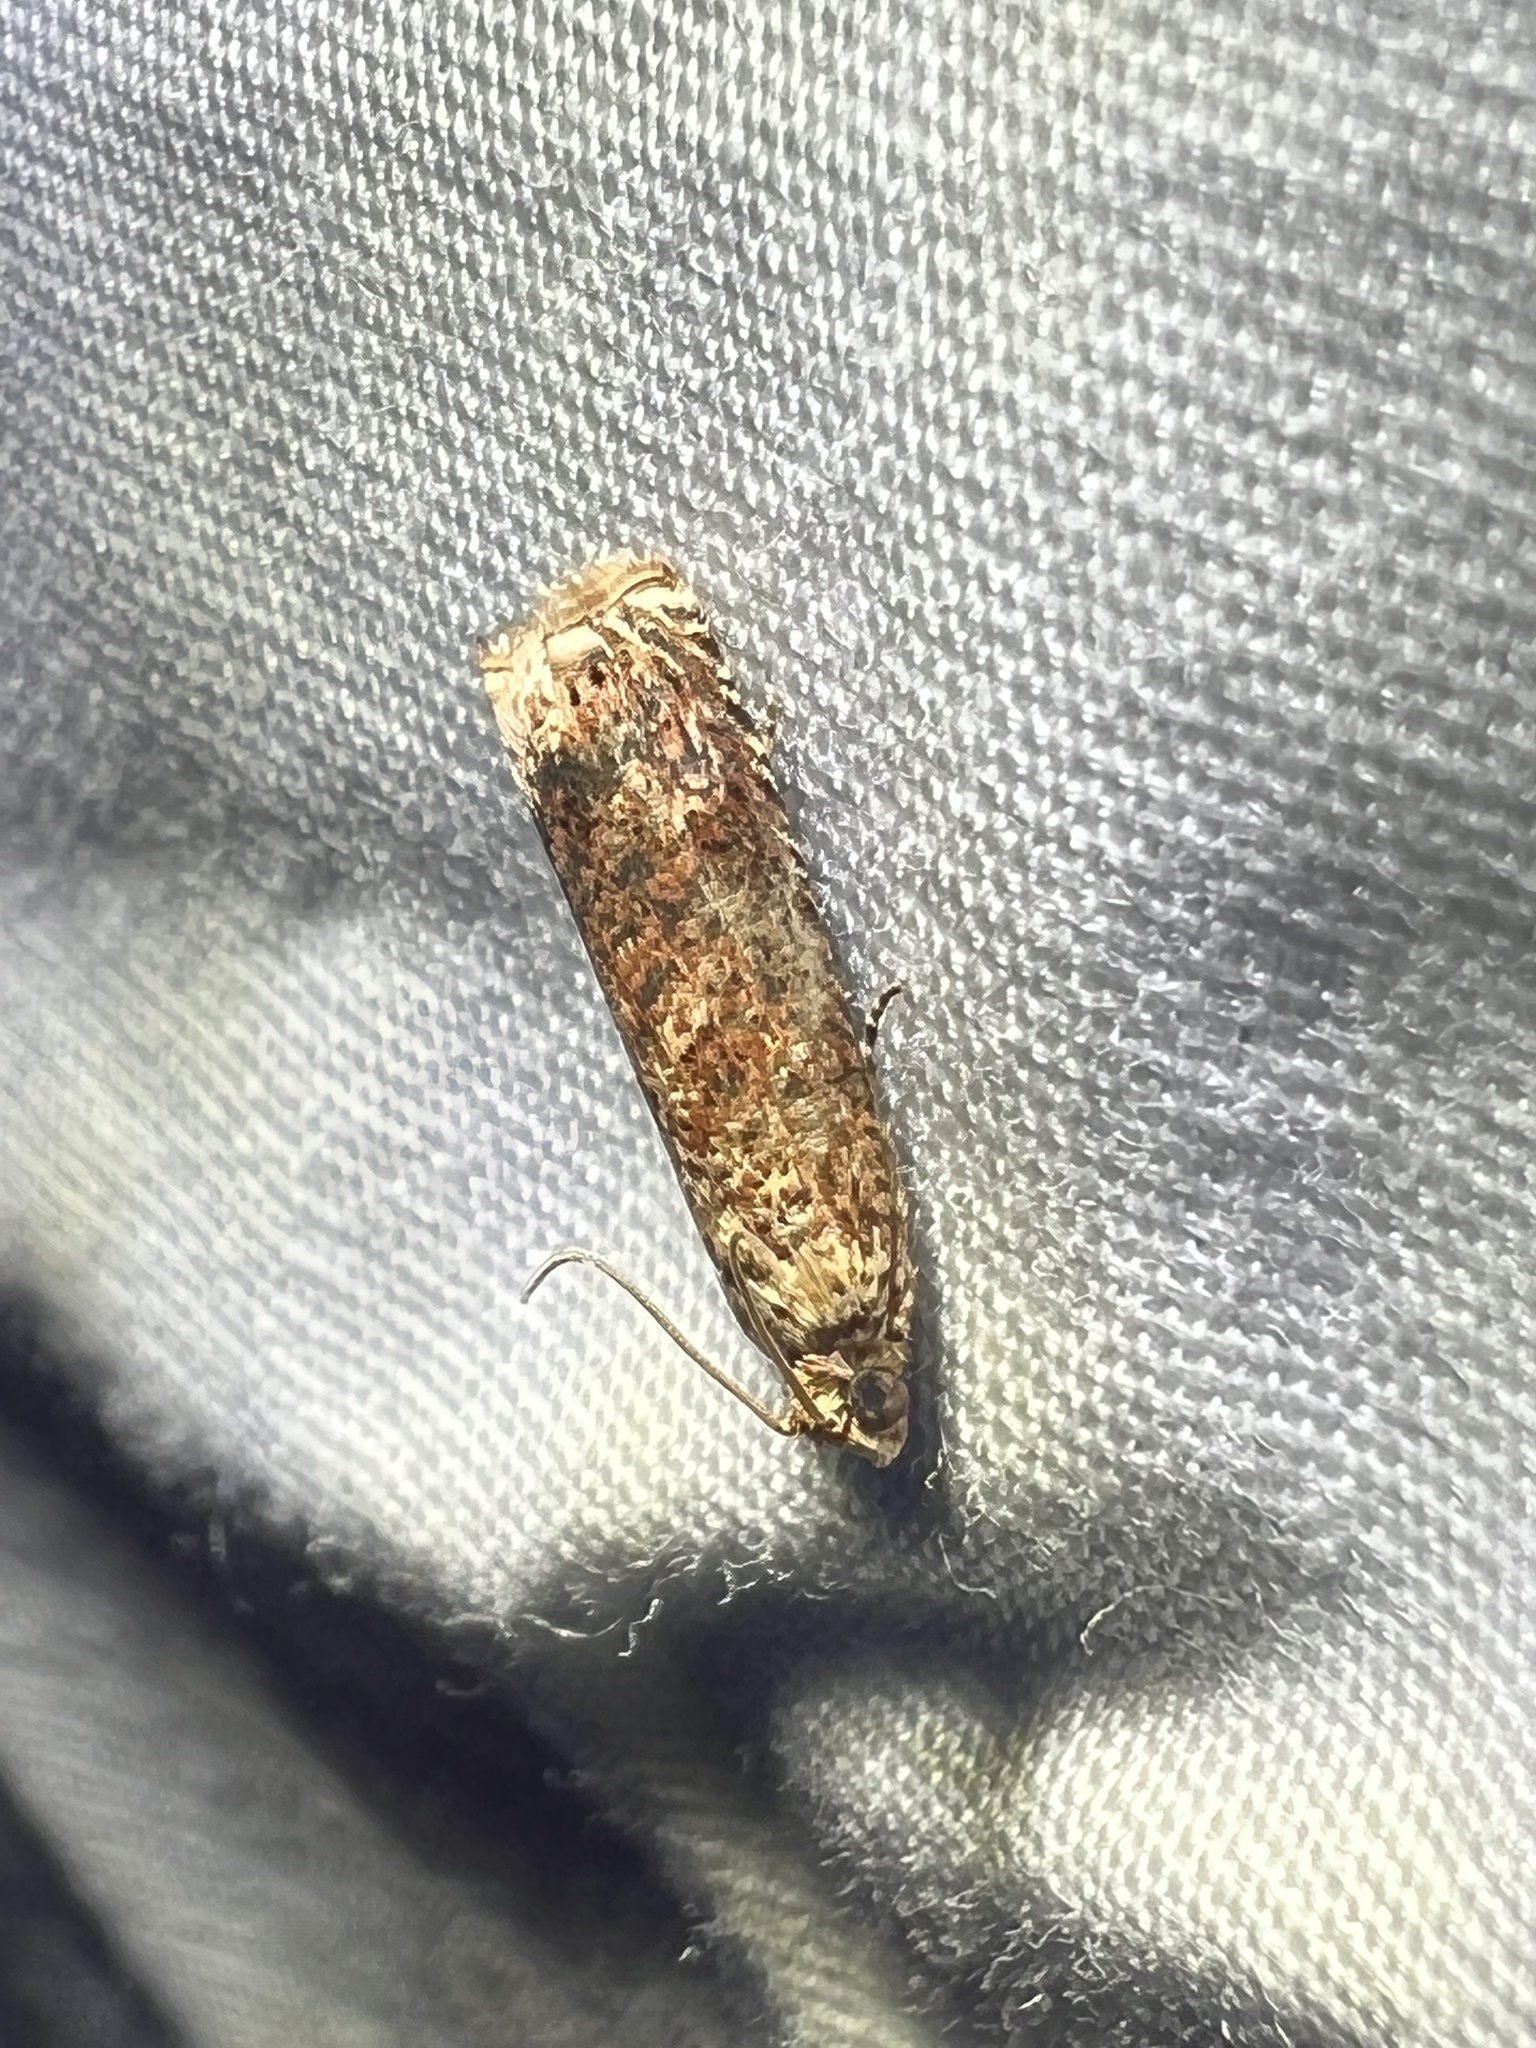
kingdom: Animalia
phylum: Arthropoda
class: Insecta
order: Lepidoptera
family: Tortricidae
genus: Episimus
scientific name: Episimus argutana
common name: Sumac leaftier moth
